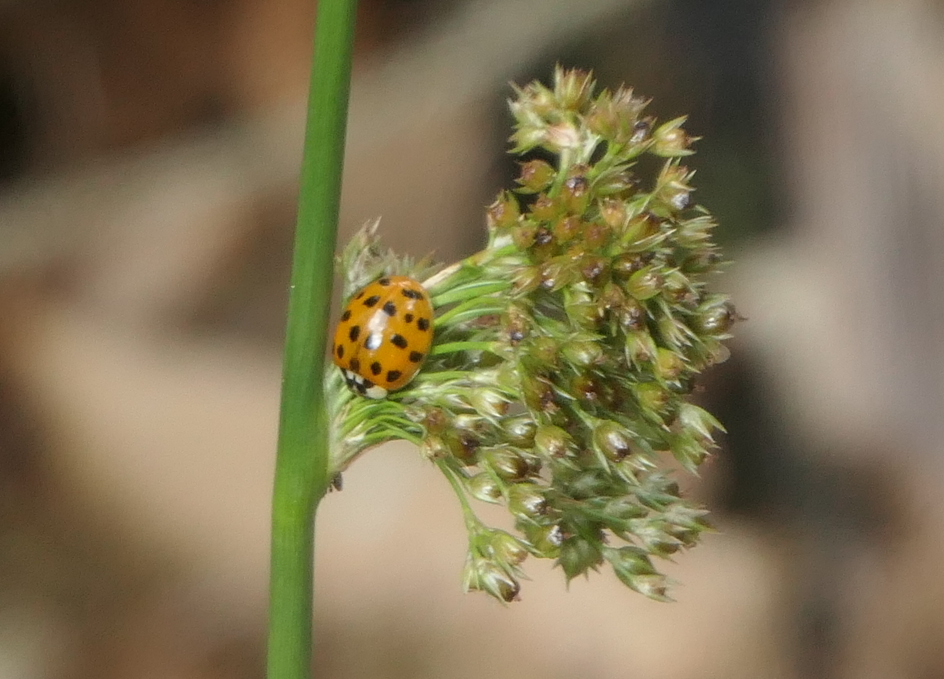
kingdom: Animalia
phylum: Arthropoda
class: Insecta
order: Coleoptera
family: Coccinellidae
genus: Harmonia
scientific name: Harmonia axyridis
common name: Harlequin ladybird
